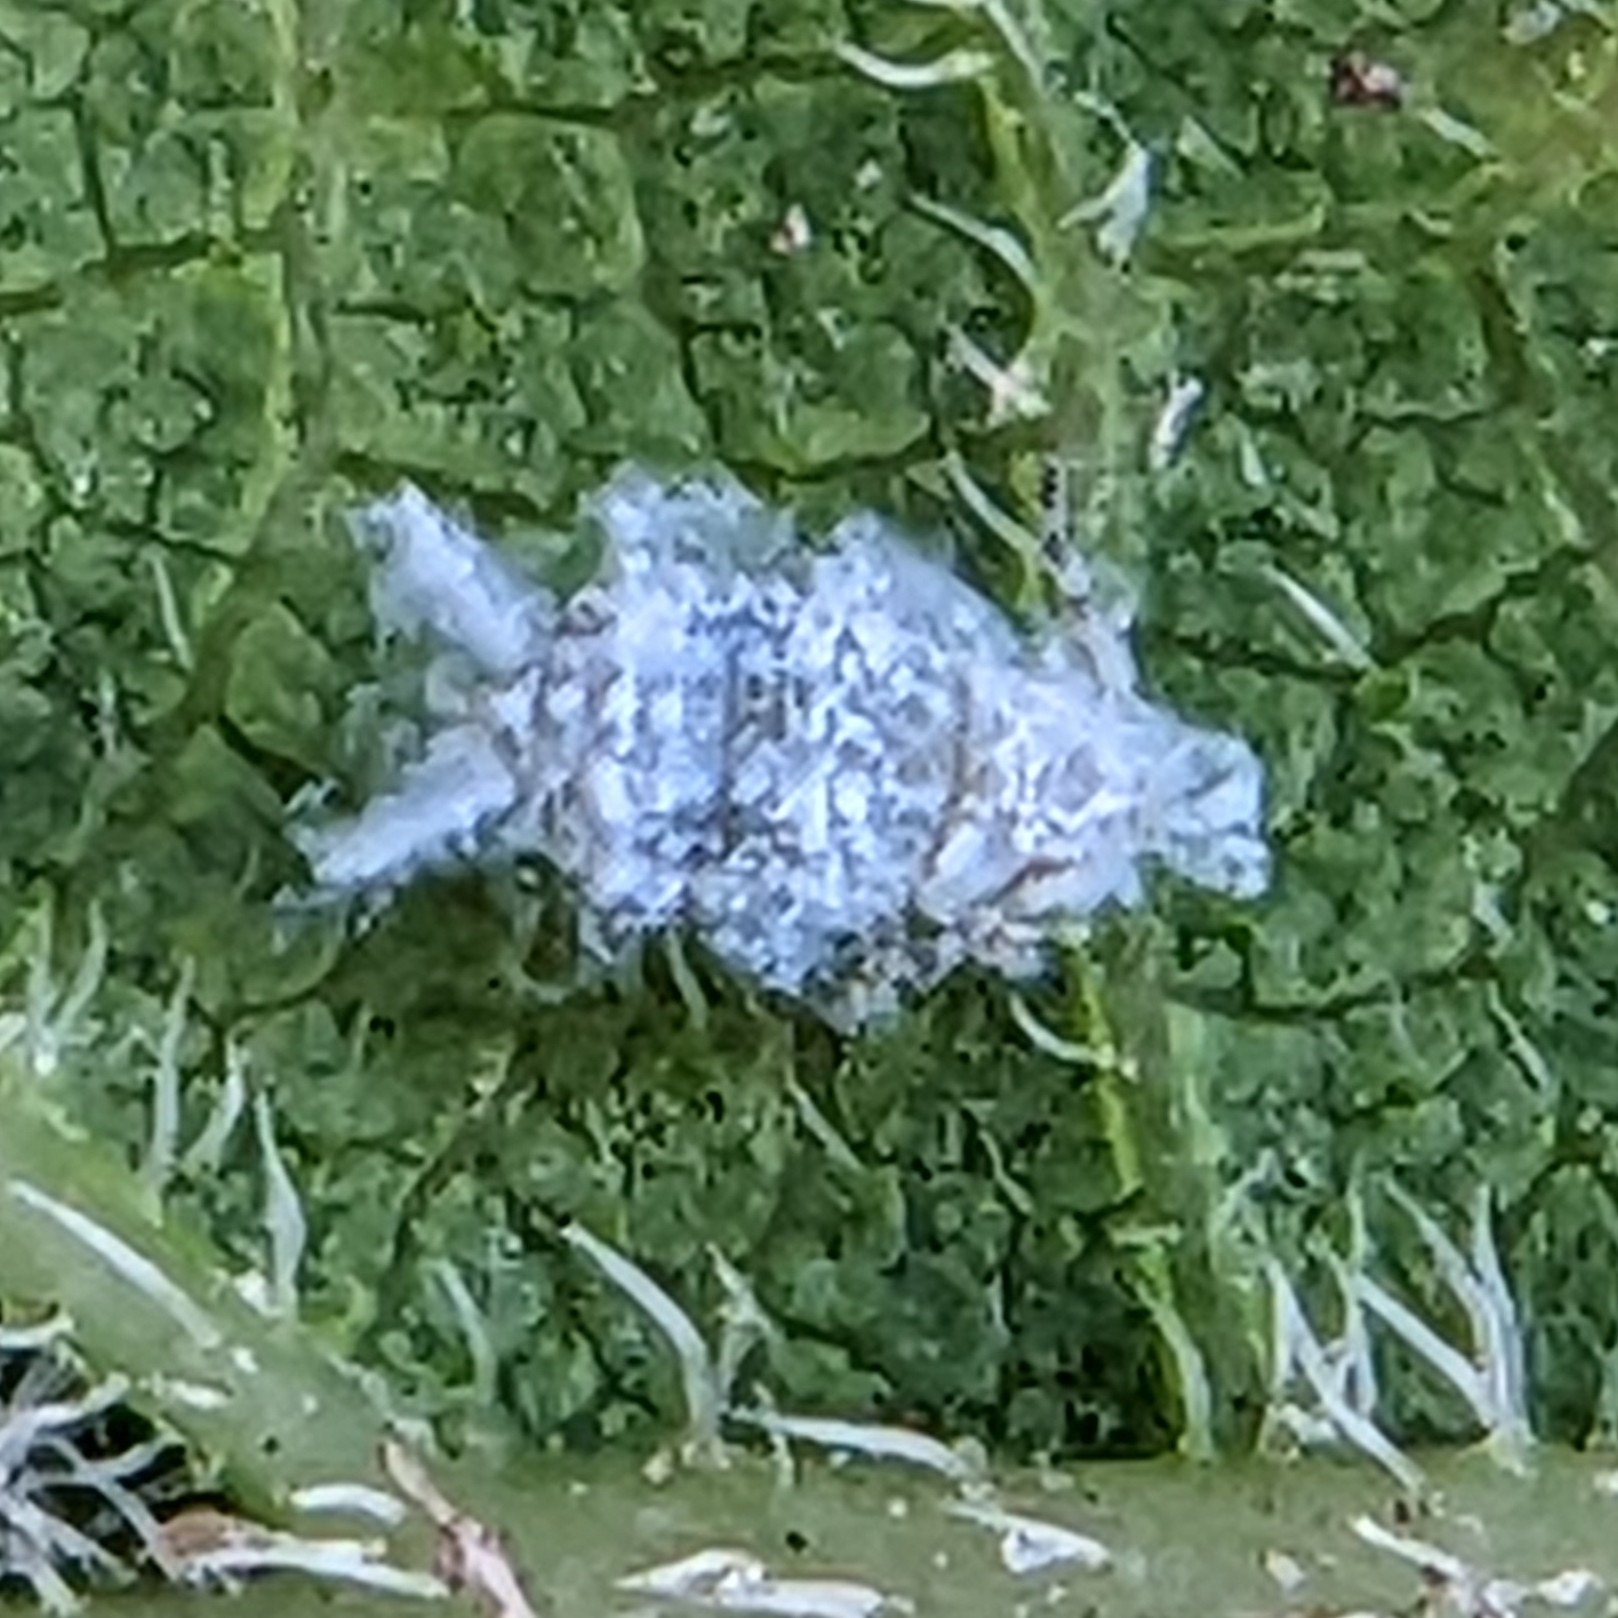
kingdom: Animalia
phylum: Arthropoda
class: Insecta
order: Hemiptera
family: Aphididae
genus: Shivaphis
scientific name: Shivaphis celti
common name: Asian wooly hackberry aphid
